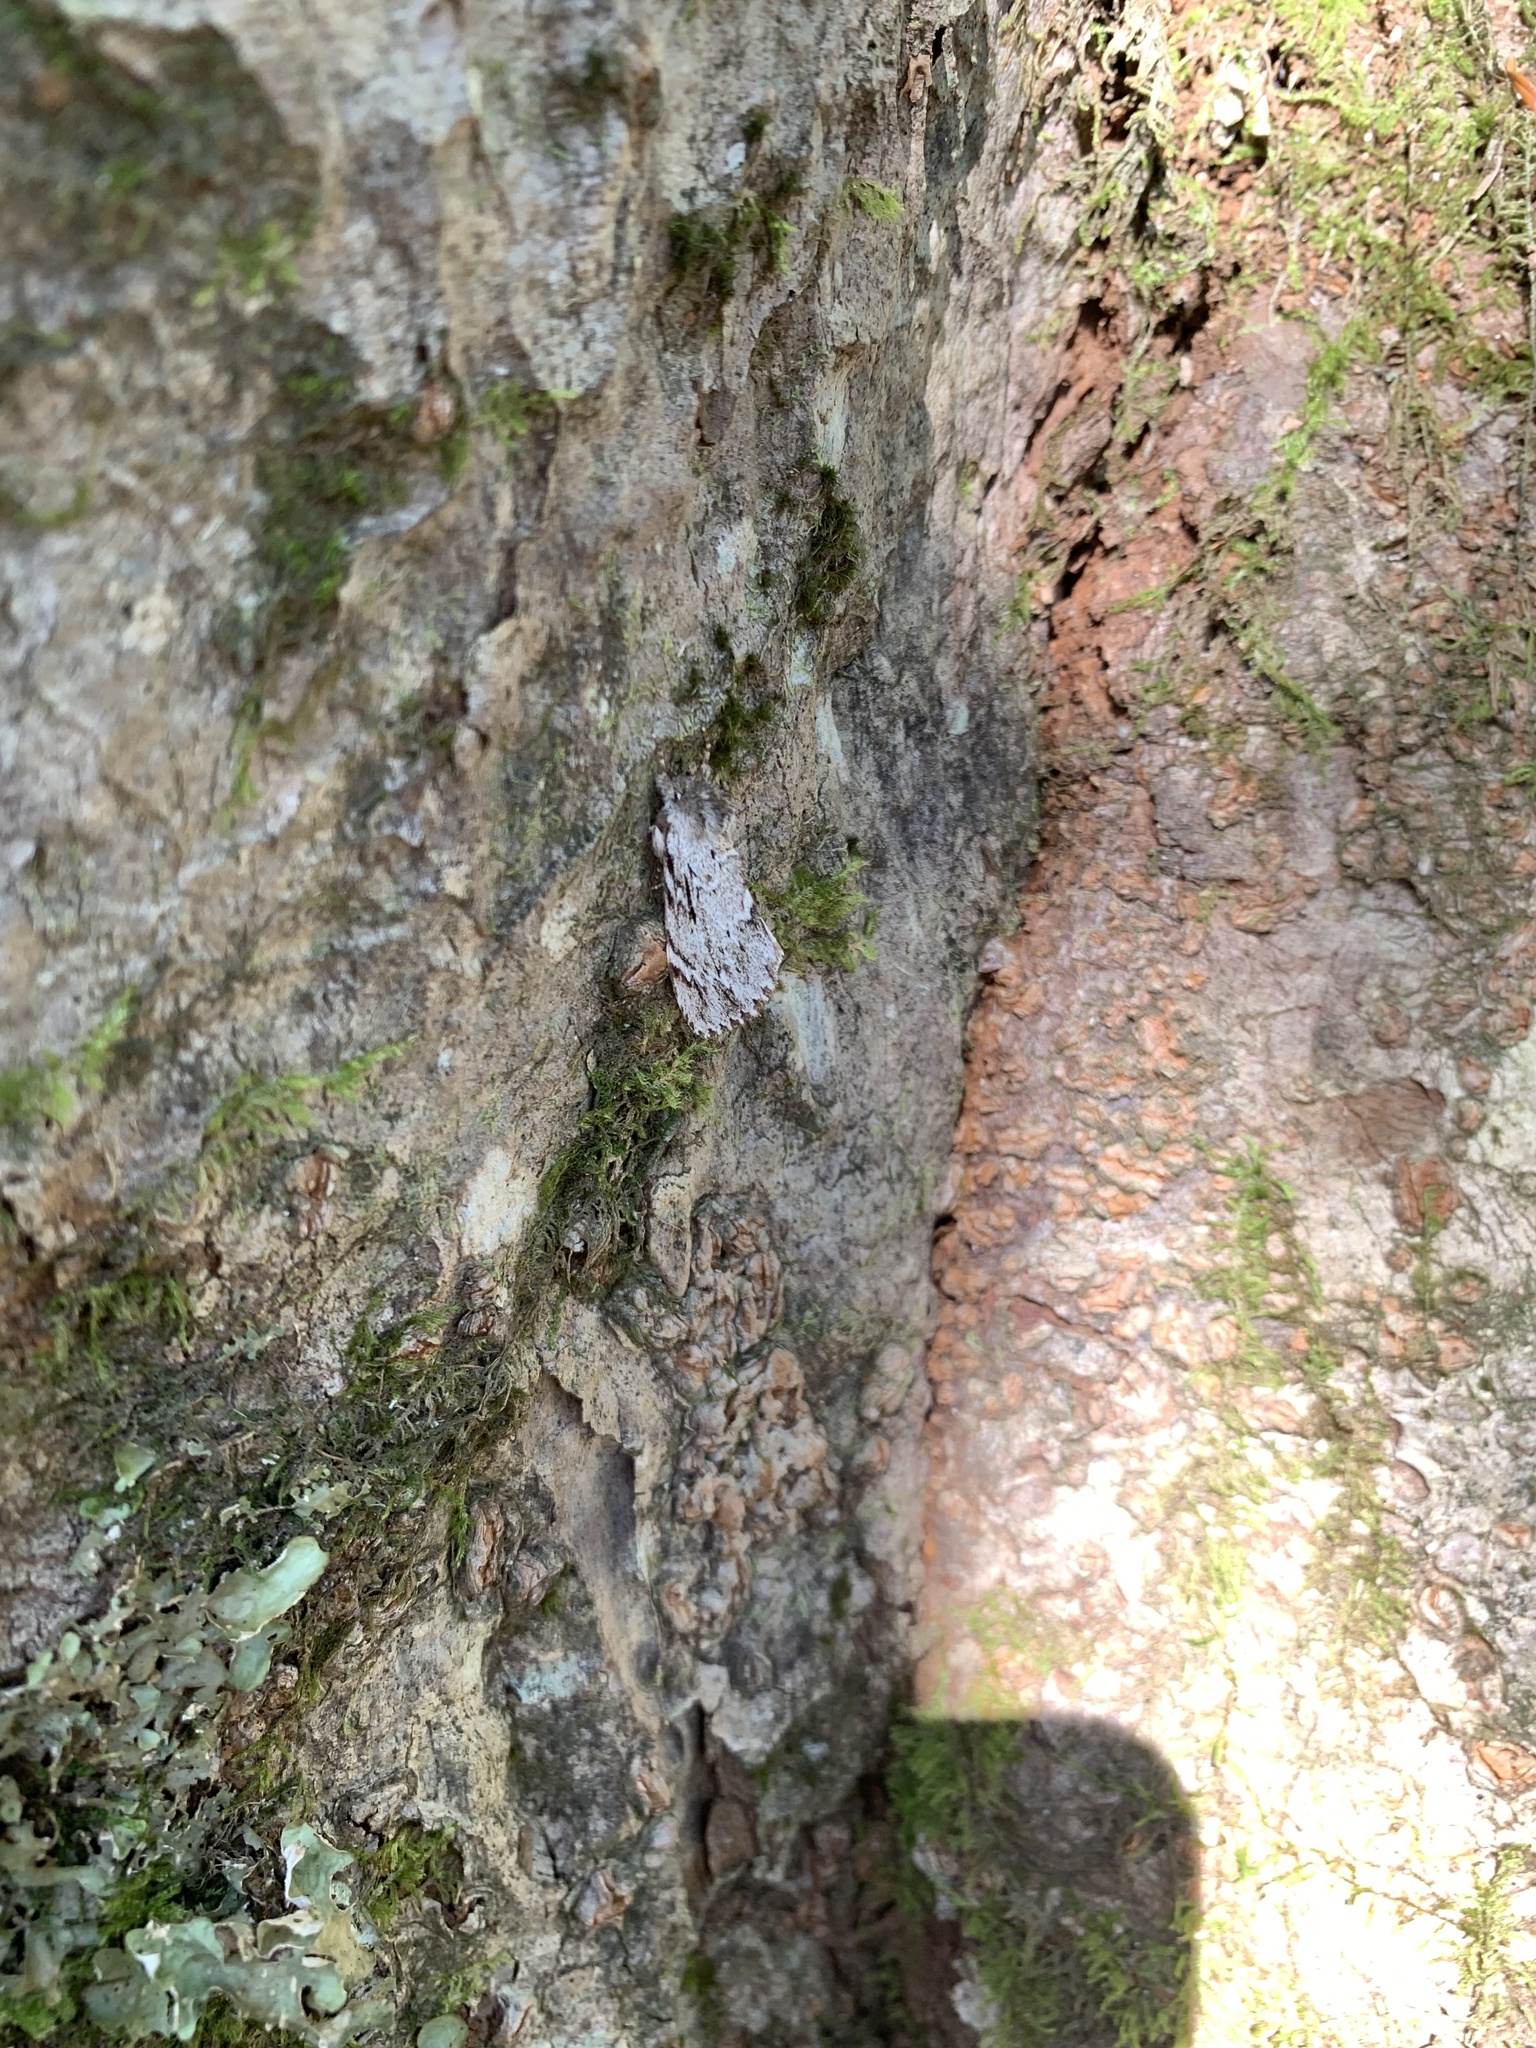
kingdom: Animalia
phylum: Arthropoda
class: Insecta
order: Lepidoptera
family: Notodontidae
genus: Ptilodon
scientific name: Ptilodon grisea
